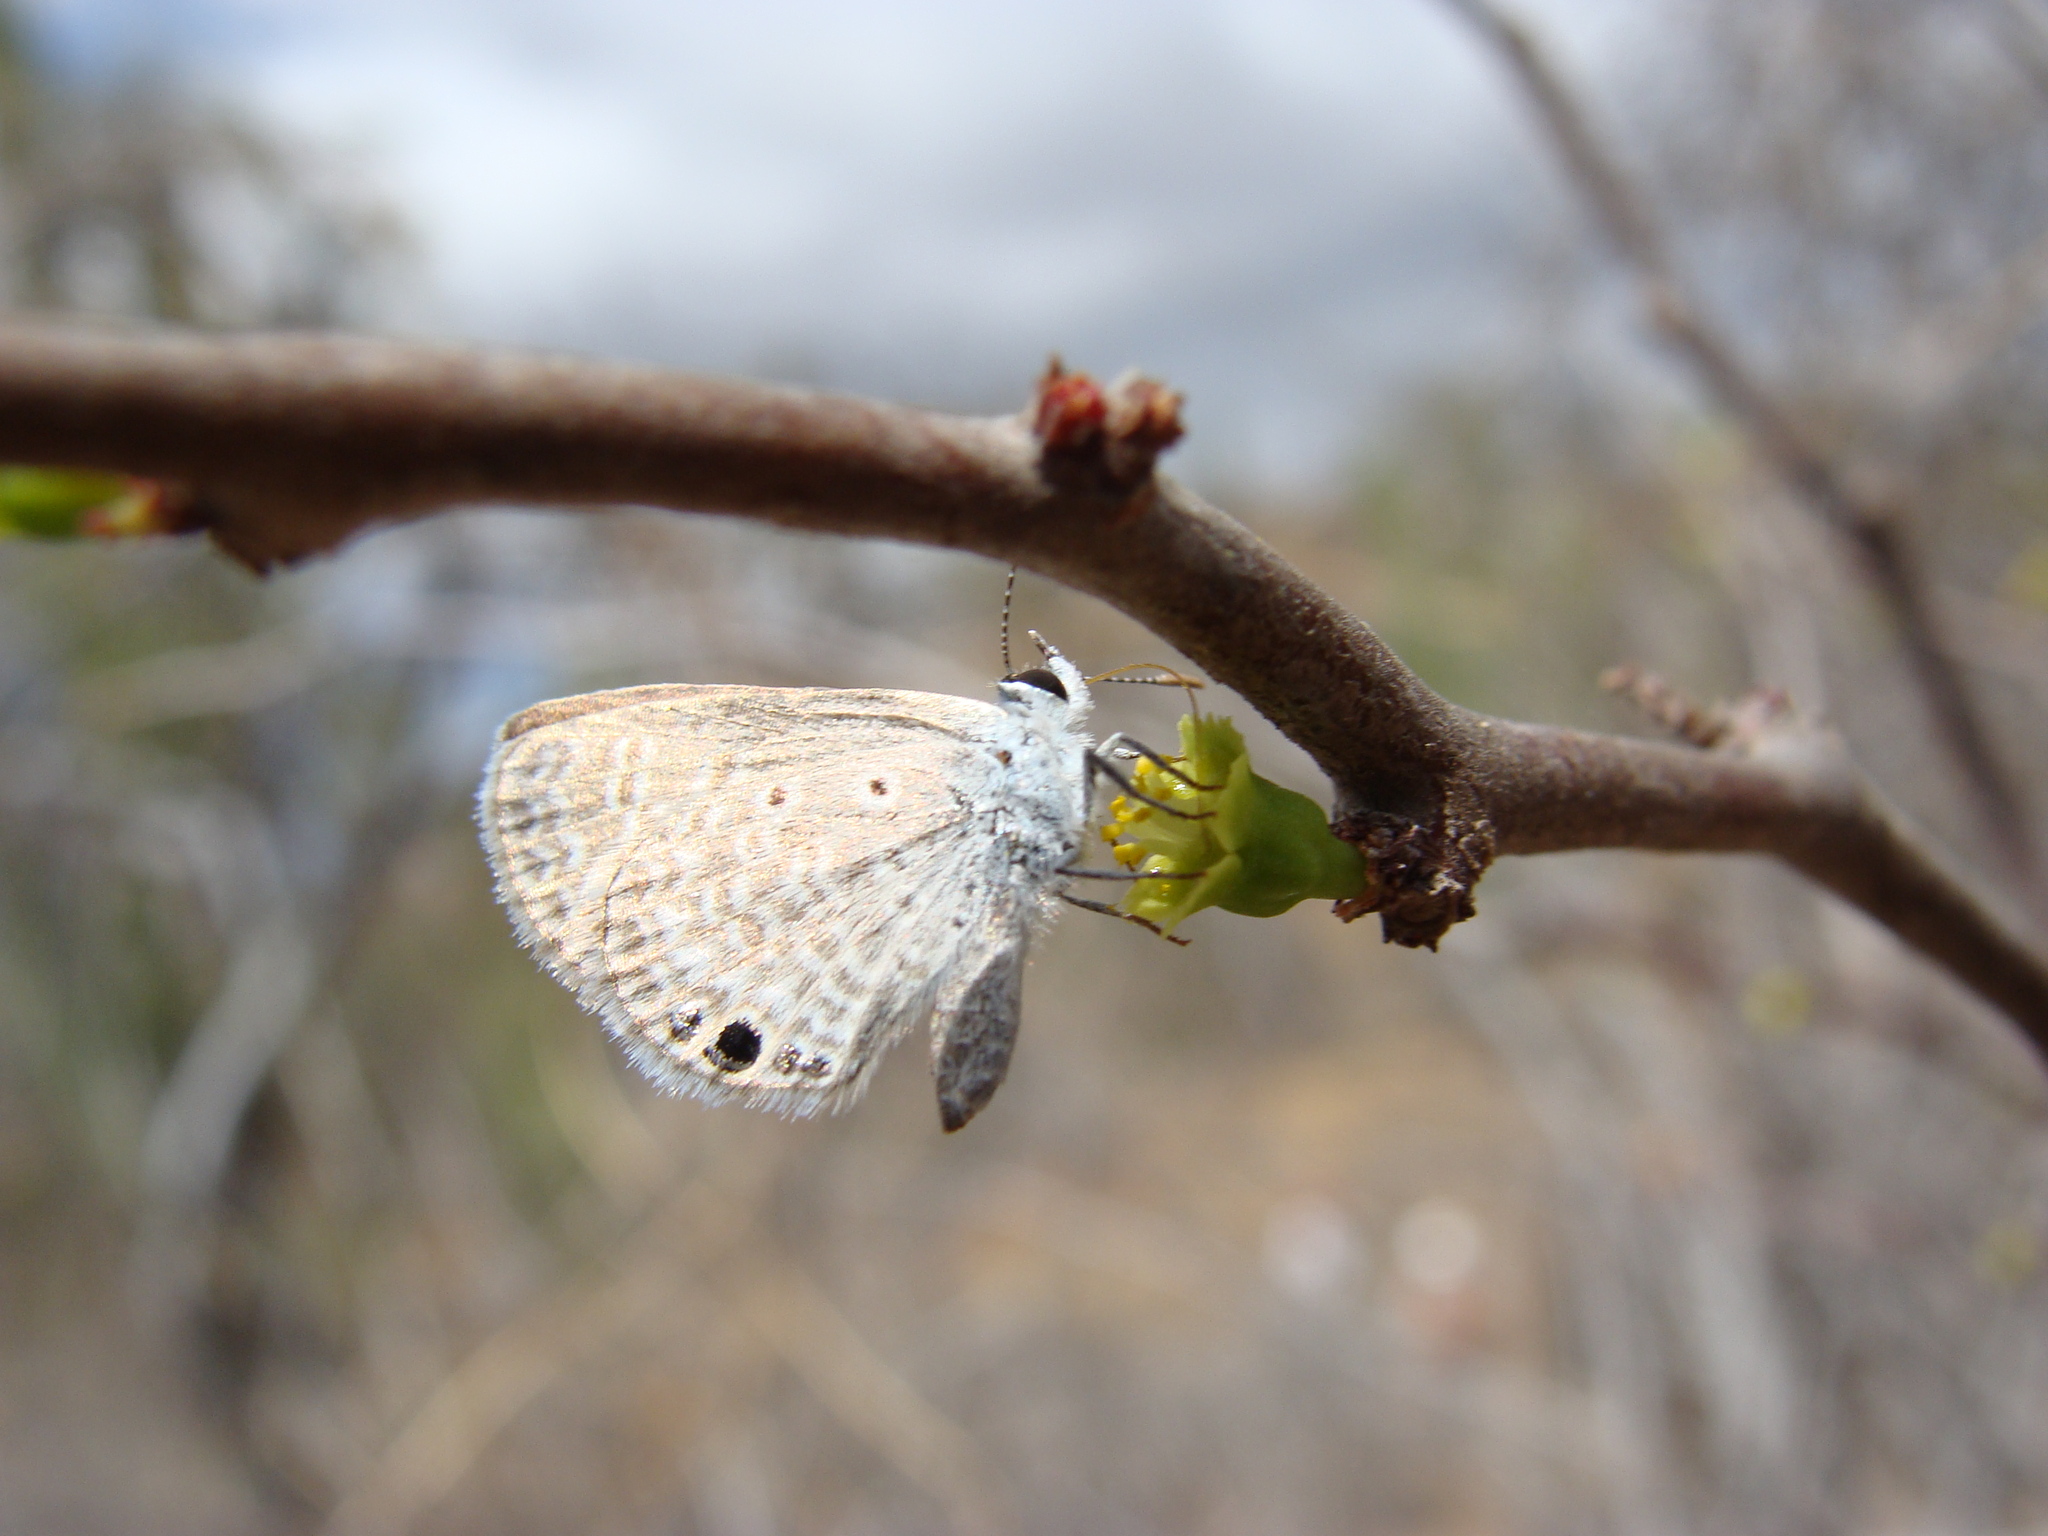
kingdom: Animalia
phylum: Arthropoda
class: Insecta
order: Lepidoptera
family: Lycaenidae
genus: Echinargus
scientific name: Echinargus isola
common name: Reakirt's blue
